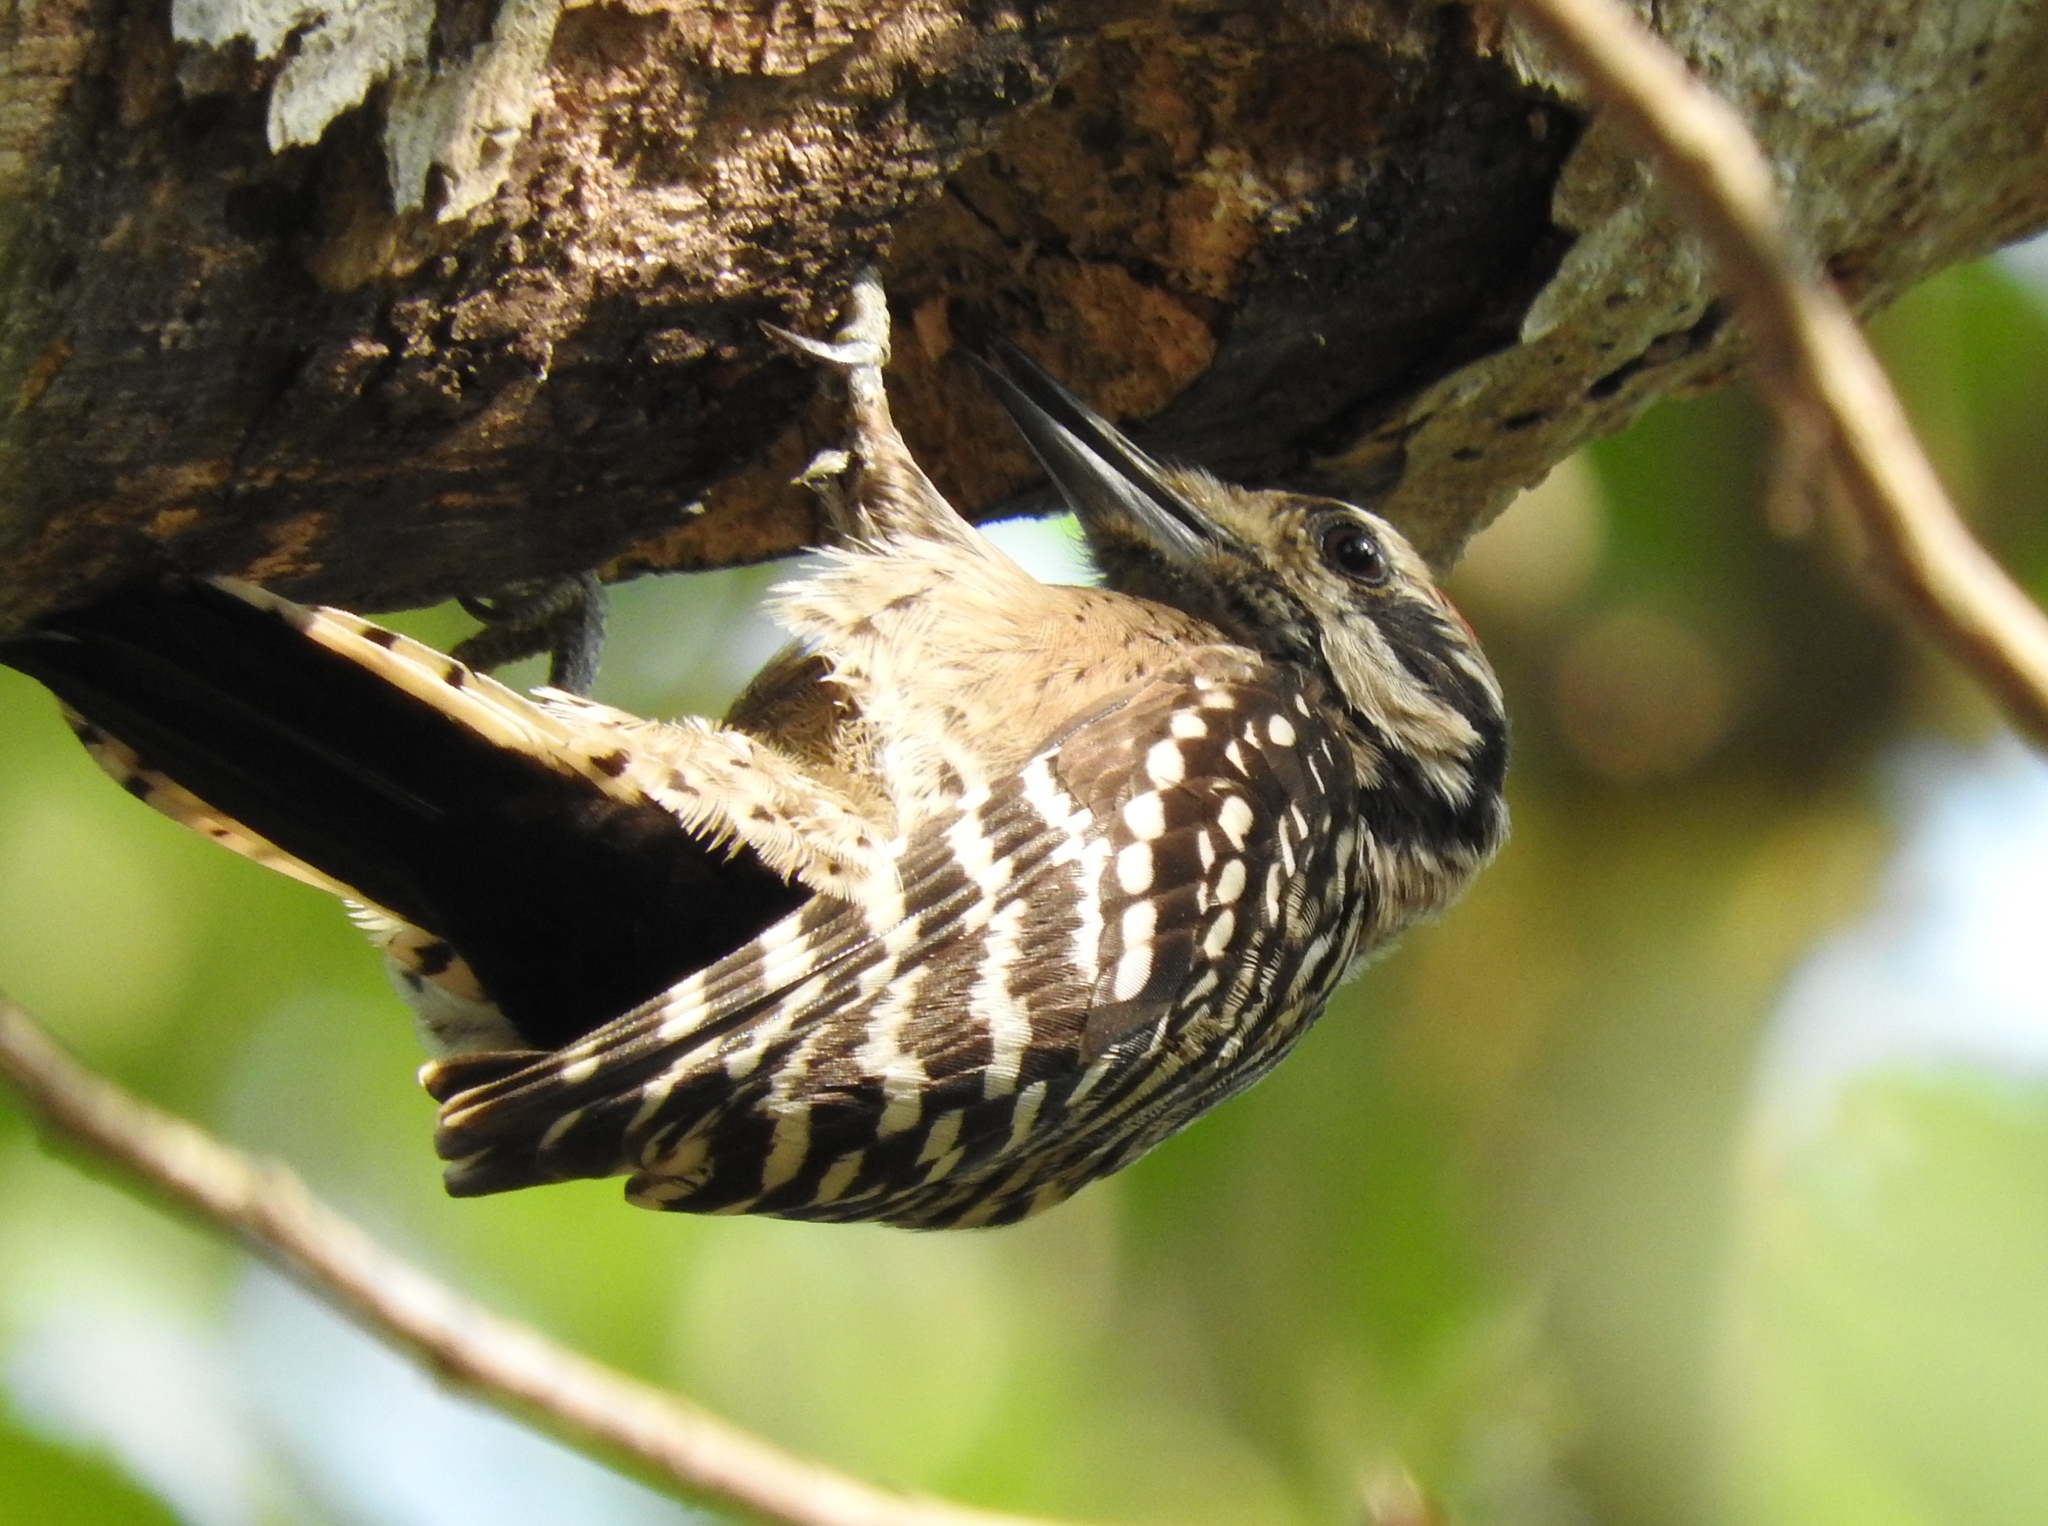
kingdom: Animalia
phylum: Chordata
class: Aves
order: Piciformes
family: Picidae
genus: Dryobates
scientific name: Dryobates scalaris
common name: Ladder-backed woodpecker
